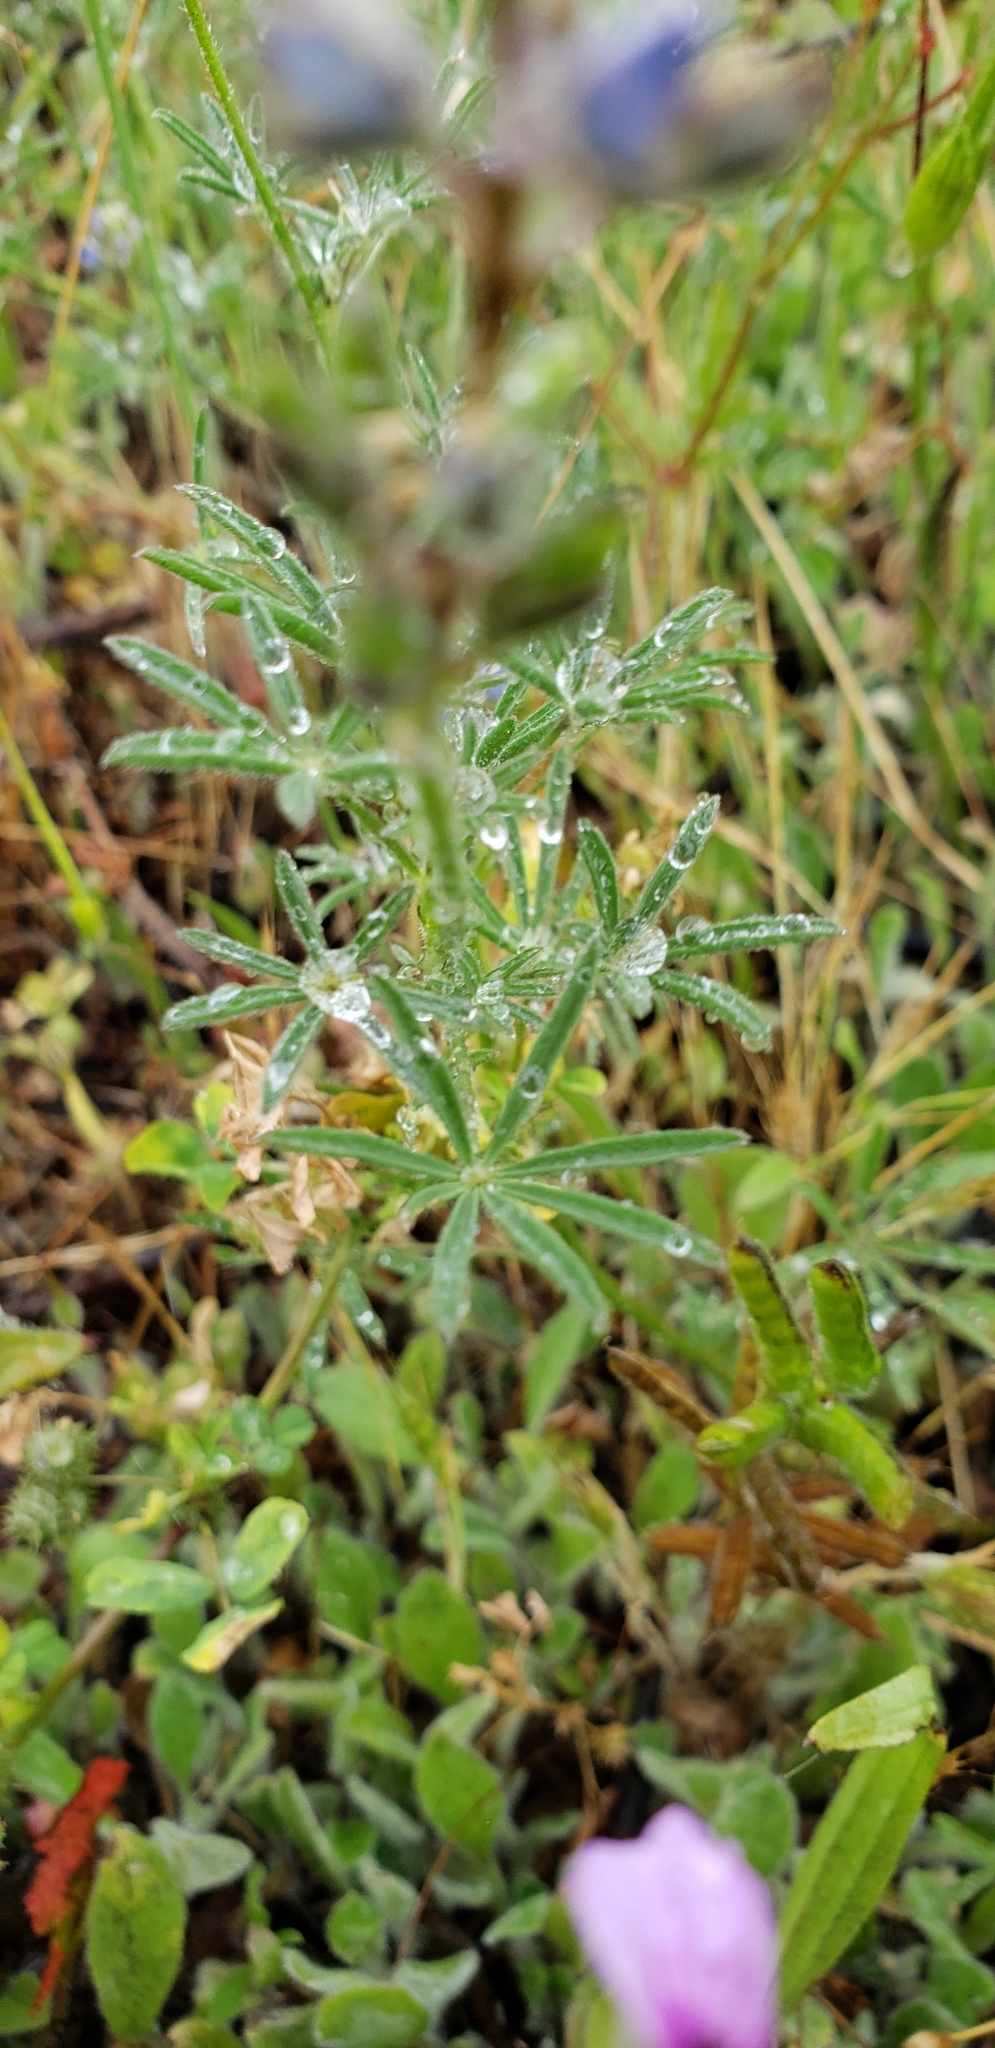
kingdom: Plantae
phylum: Tracheophyta
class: Magnoliopsida
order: Fabales
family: Fabaceae
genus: Lupinus
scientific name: Lupinus bicolor
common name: Miniature lupine
